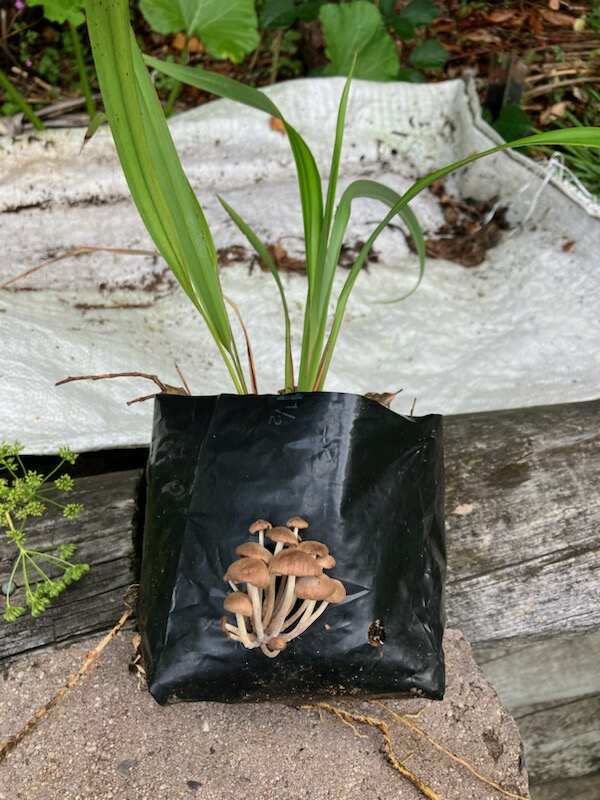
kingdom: Fungi
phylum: Basidiomycota
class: Agaricomycetes
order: Agaricales
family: Omphalotaceae
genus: Collybiopsis
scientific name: Collybiopsis subpruinosa
